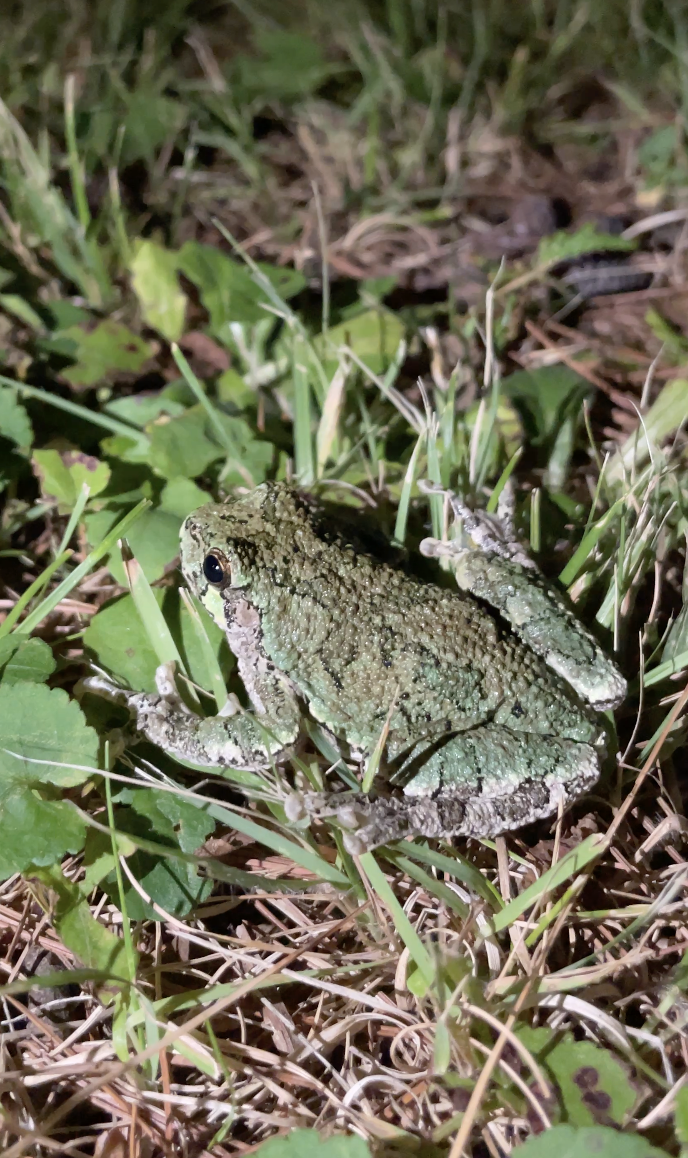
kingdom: Animalia
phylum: Chordata
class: Amphibia
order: Anura
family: Hylidae
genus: Dryophytes
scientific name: Dryophytes versicolor
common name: Gray treefrog
